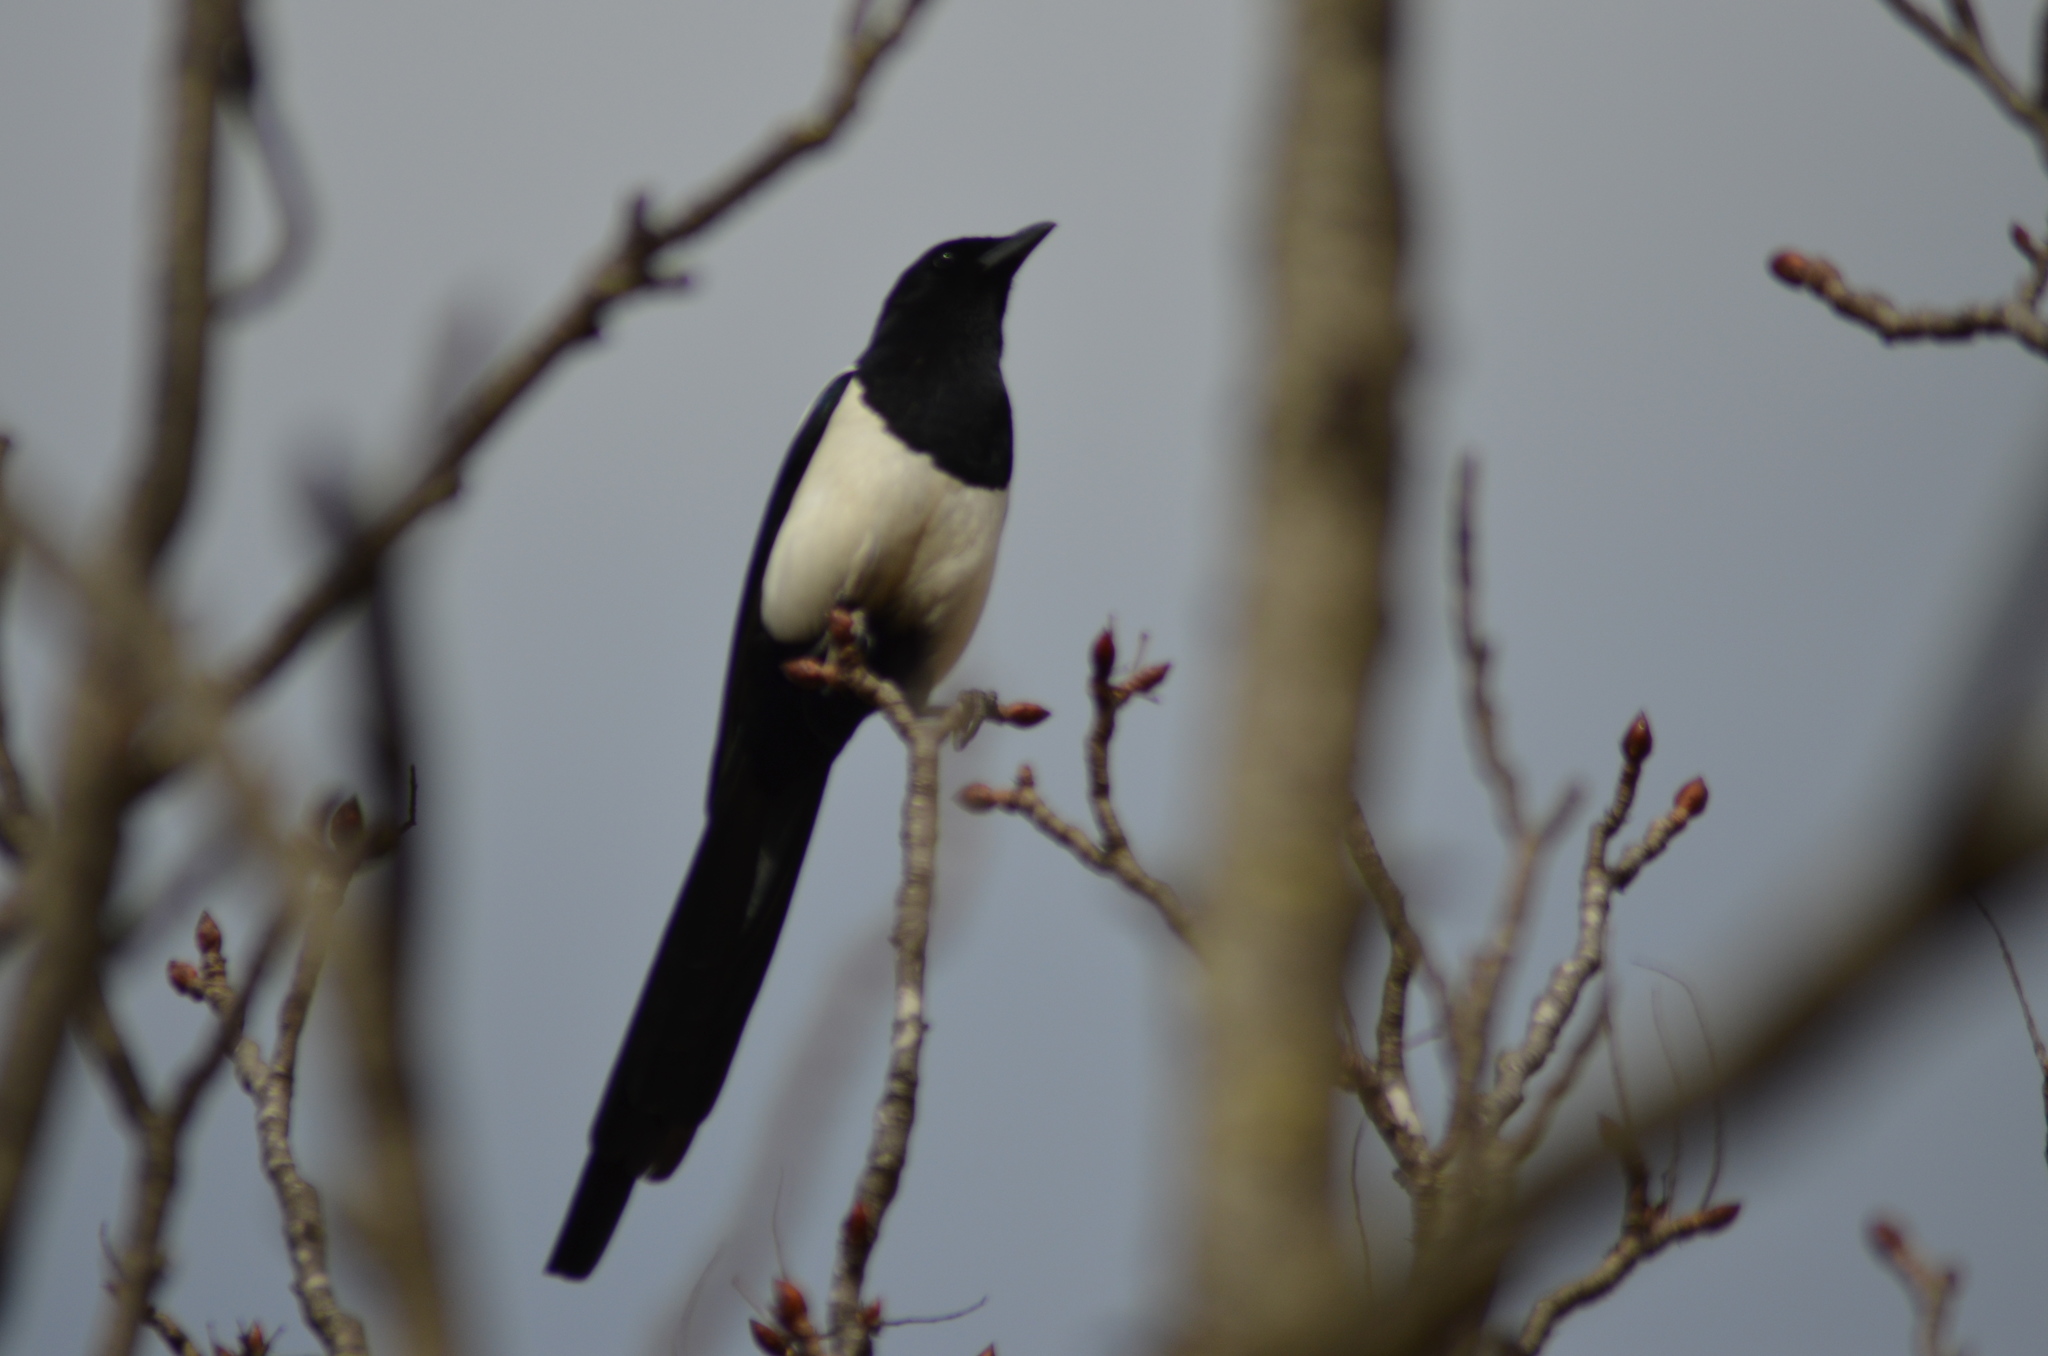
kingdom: Animalia
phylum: Chordata
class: Aves
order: Passeriformes
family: Corvidae
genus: Pica
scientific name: Pica pica
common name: Eurasian magpie
